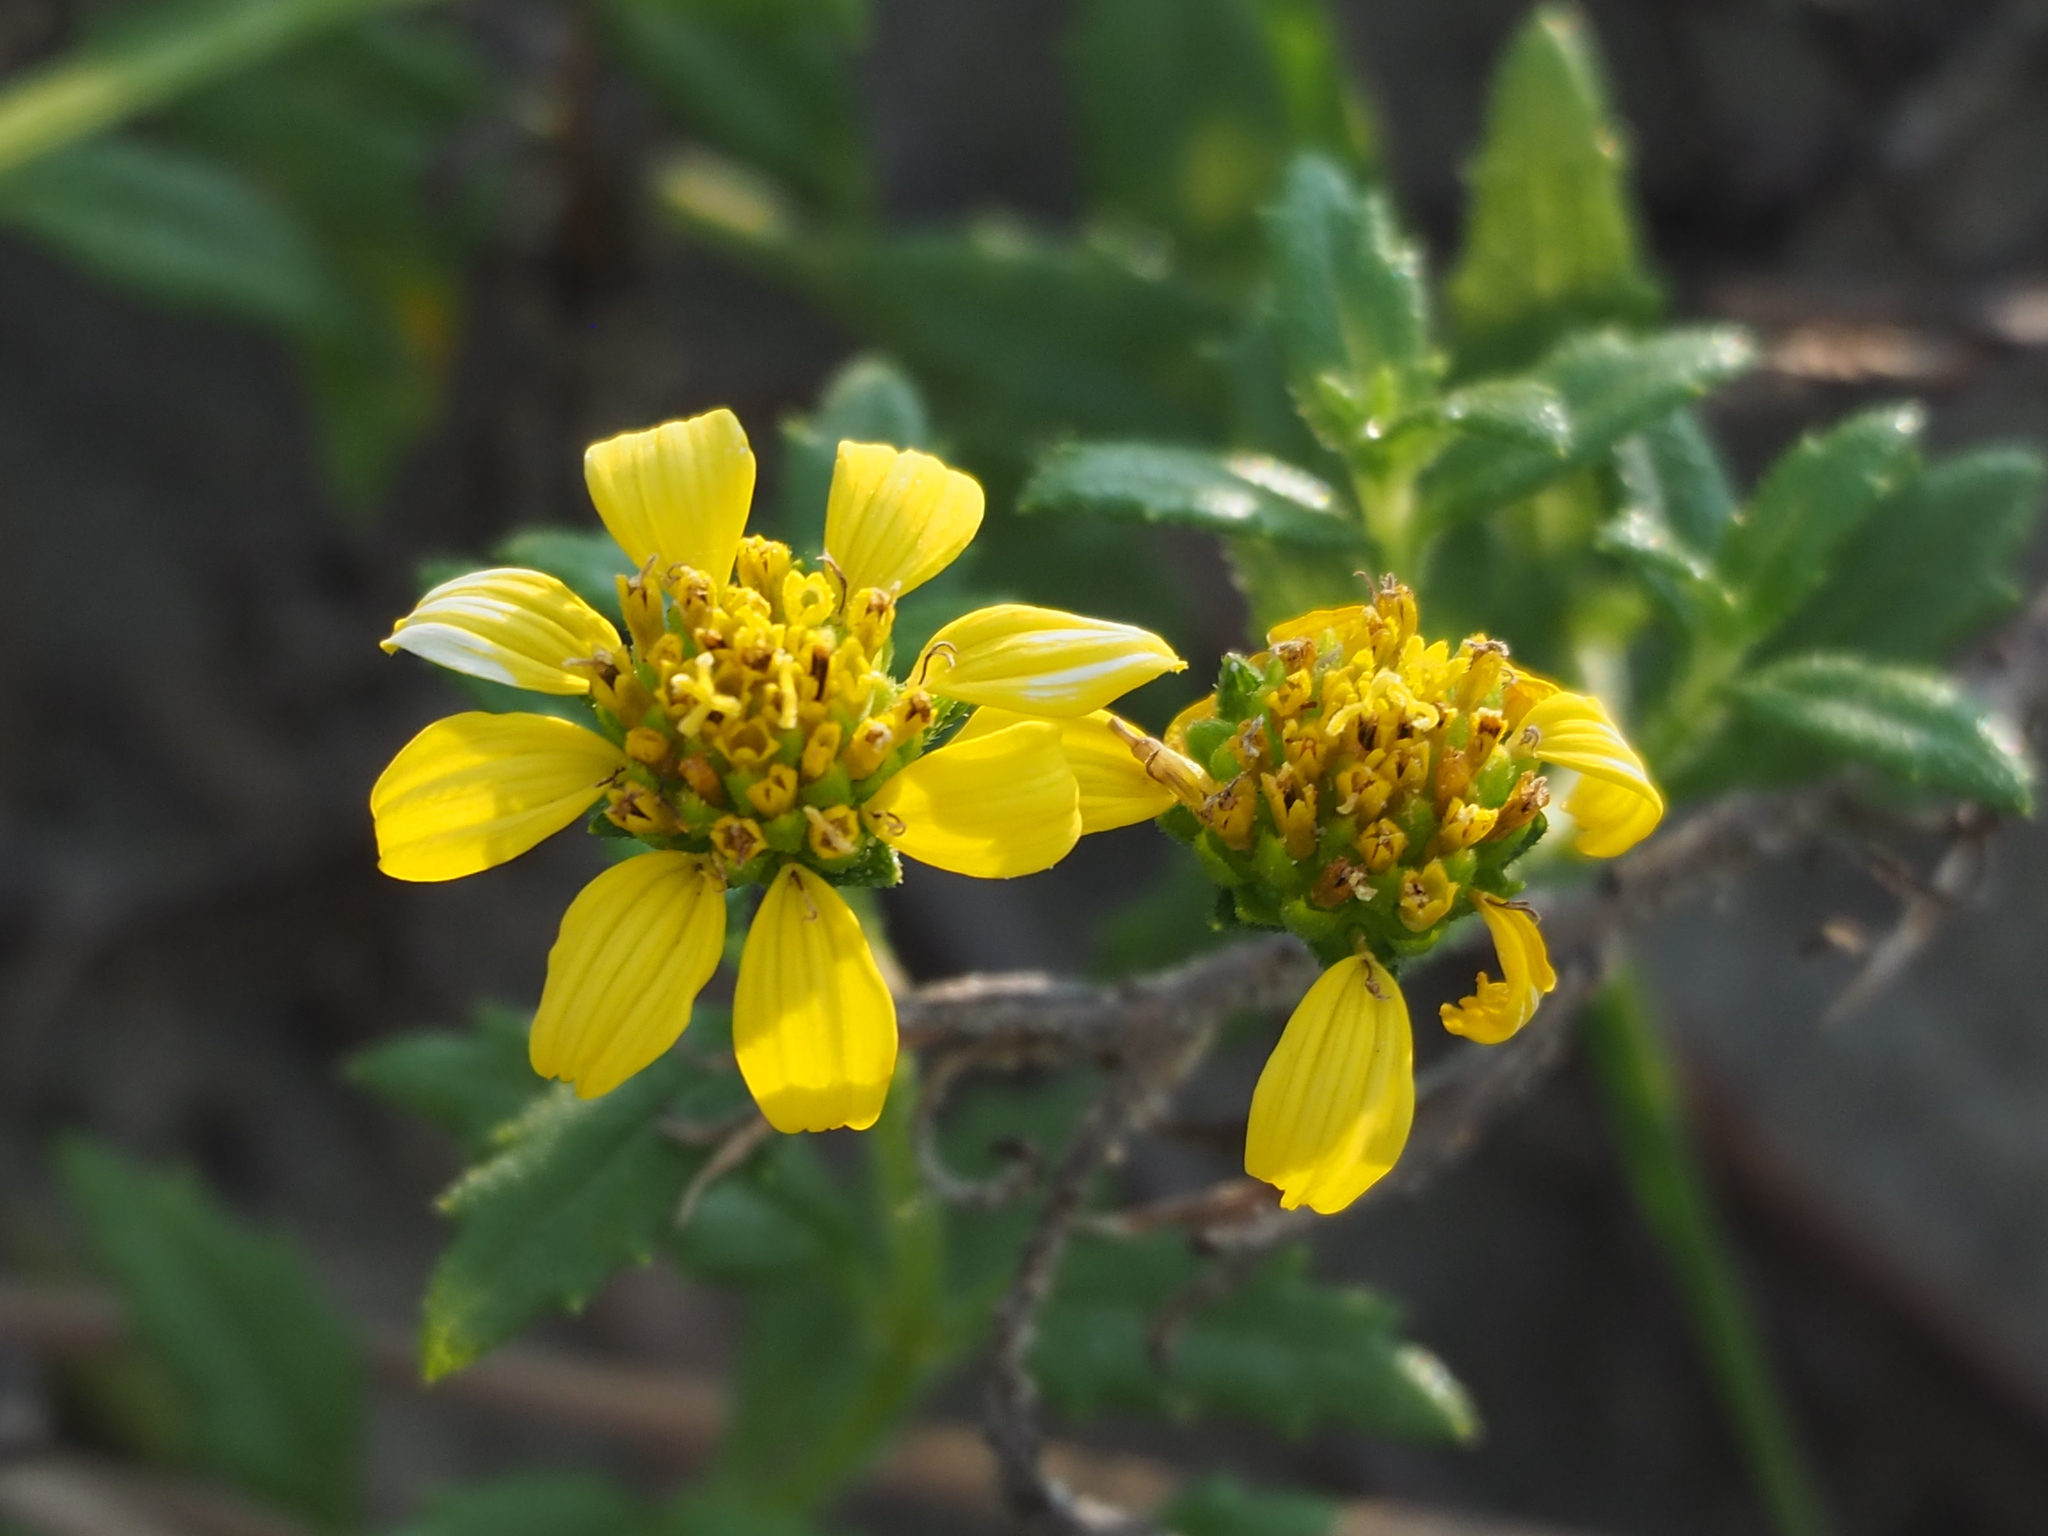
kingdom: Plantae
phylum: Tracheophyta
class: Magnoliopsida
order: Asterales
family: Asteraceae
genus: Melanthera
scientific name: Melanthera prostrata
